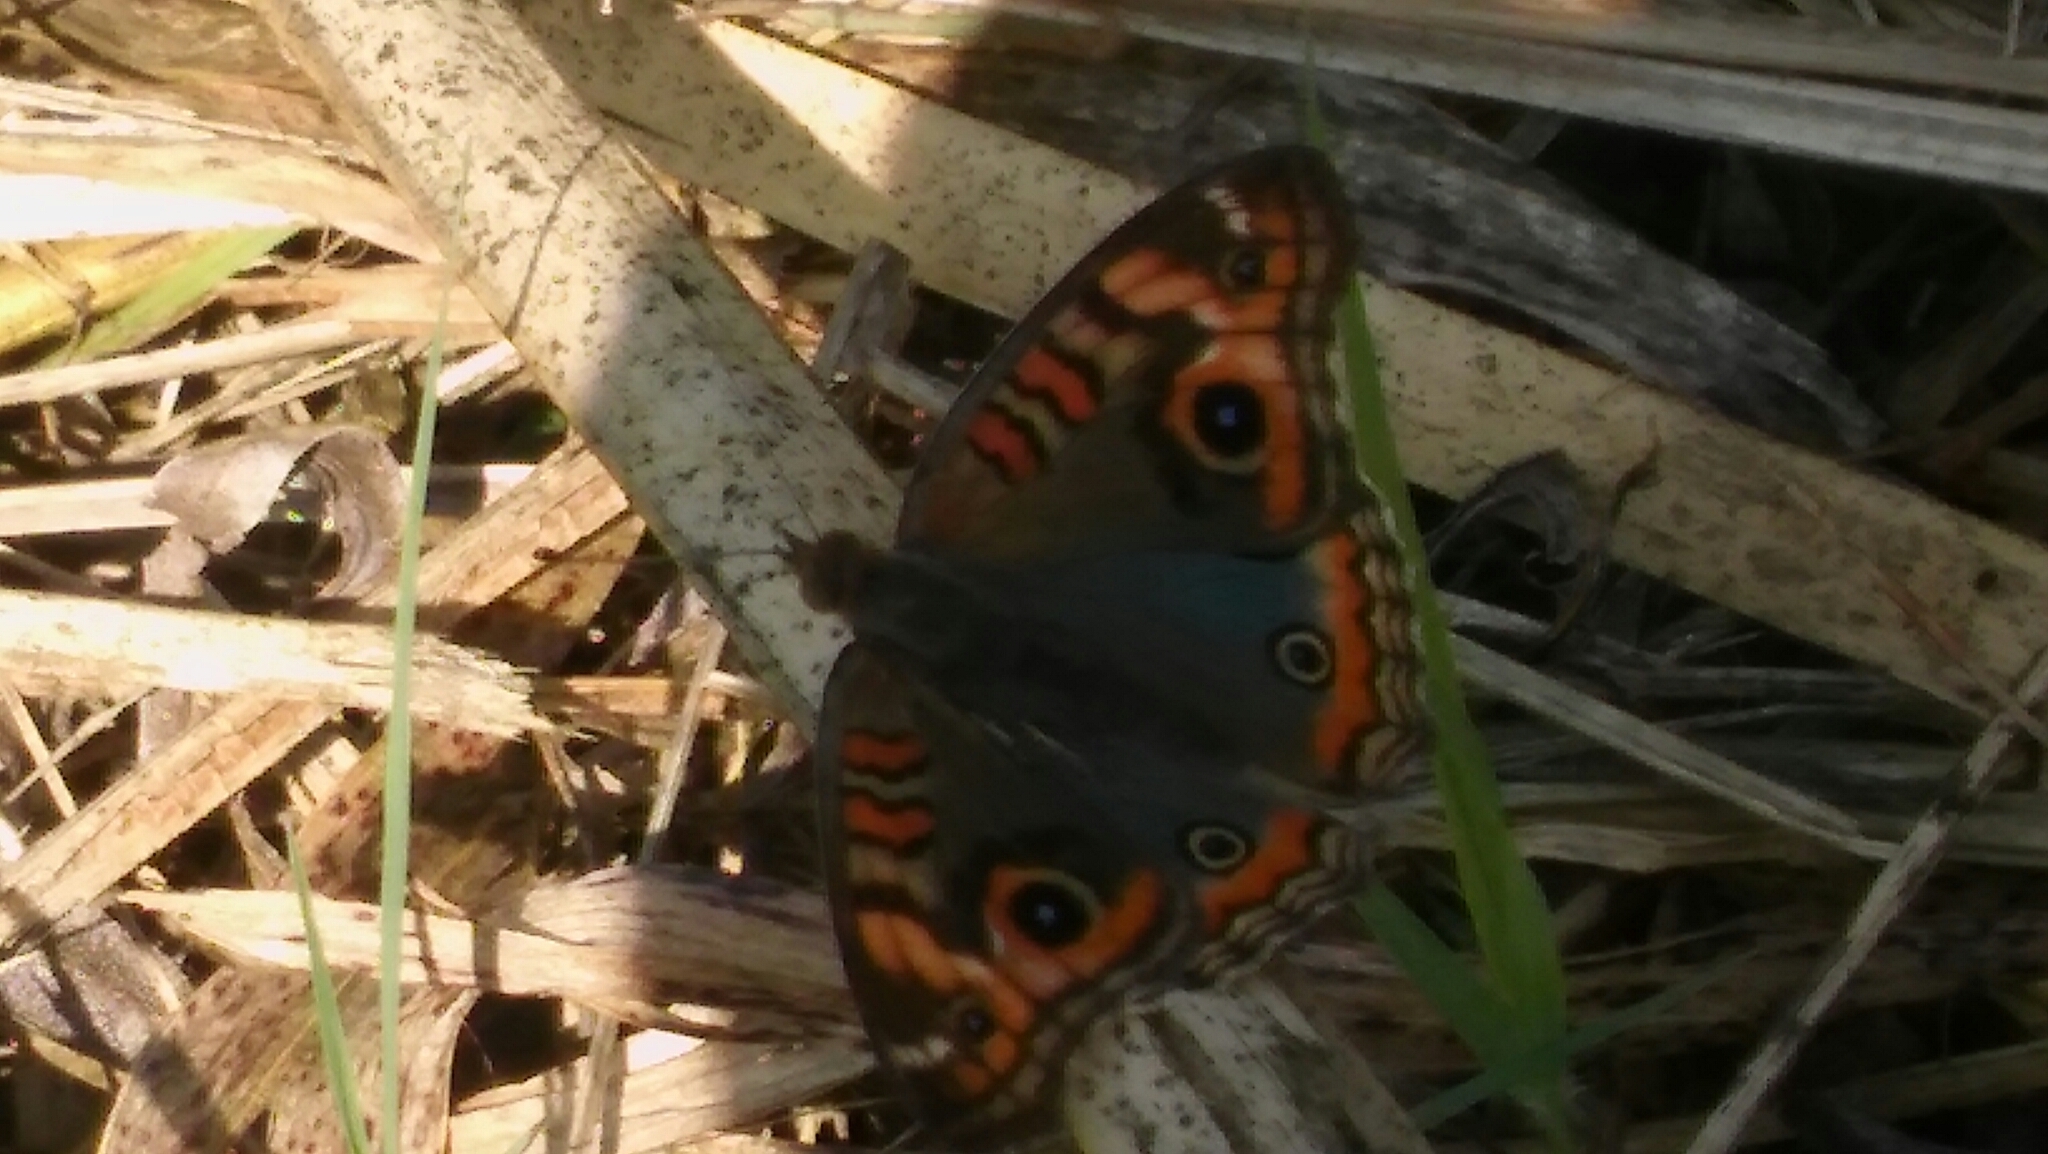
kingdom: Animalia
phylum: Arthropoda
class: Insecta
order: Lepidoptera
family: Nymphalidae
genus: Junonia
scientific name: Junonia lavinia
